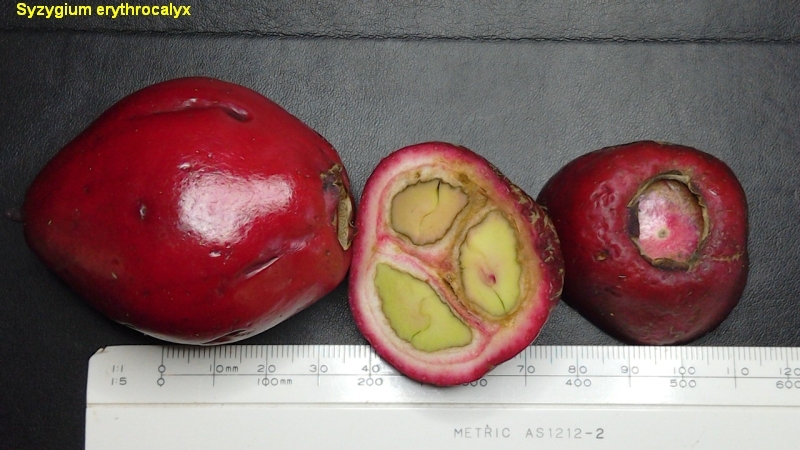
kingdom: Plantae
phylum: Tracheophyta
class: Magnoliopsida
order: Myrtales
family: Myrtaceae
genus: Syzygium
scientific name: Syzygium erythrocalyx
